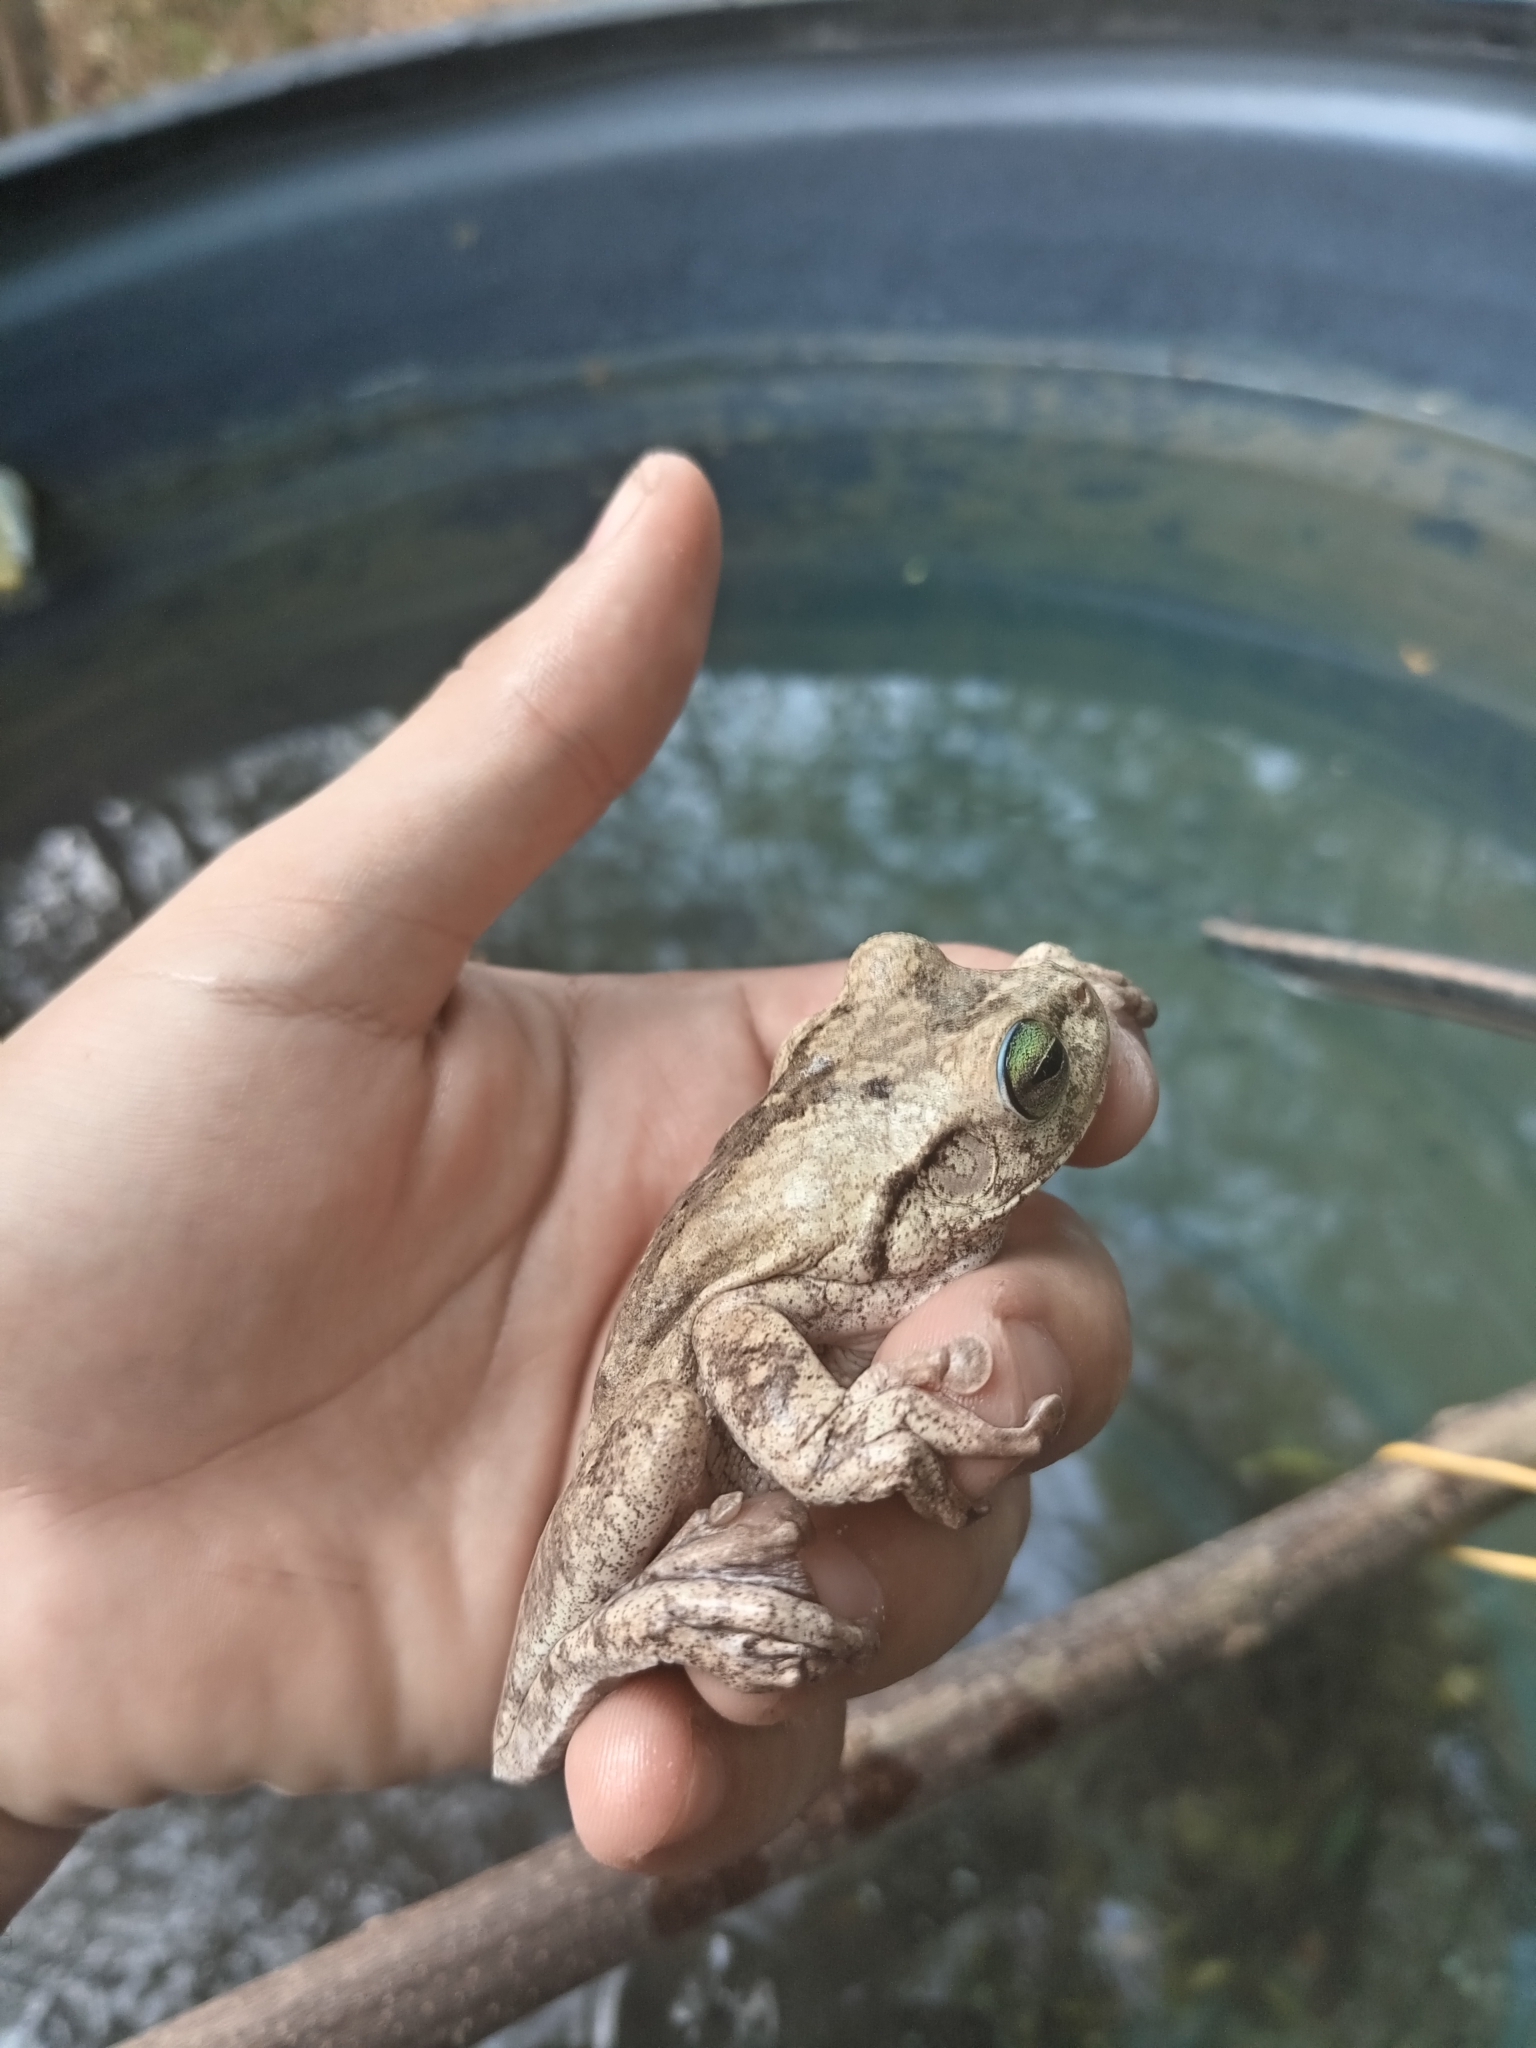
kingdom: Animalia
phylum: Chordata
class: Amphibia
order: Anura
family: Hylidae
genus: Boana
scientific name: Boana pugnax
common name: Chirique-flusse treefrog
